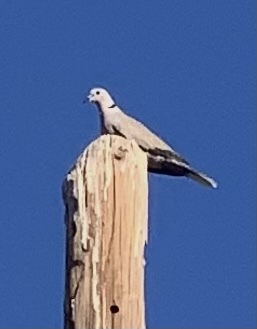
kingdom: Animalia
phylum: Chordata
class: Aves
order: Columbiformes
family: Columbidae
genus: Streptopelia
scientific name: Streptopelia decaocto
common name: Eurasian collared dove
